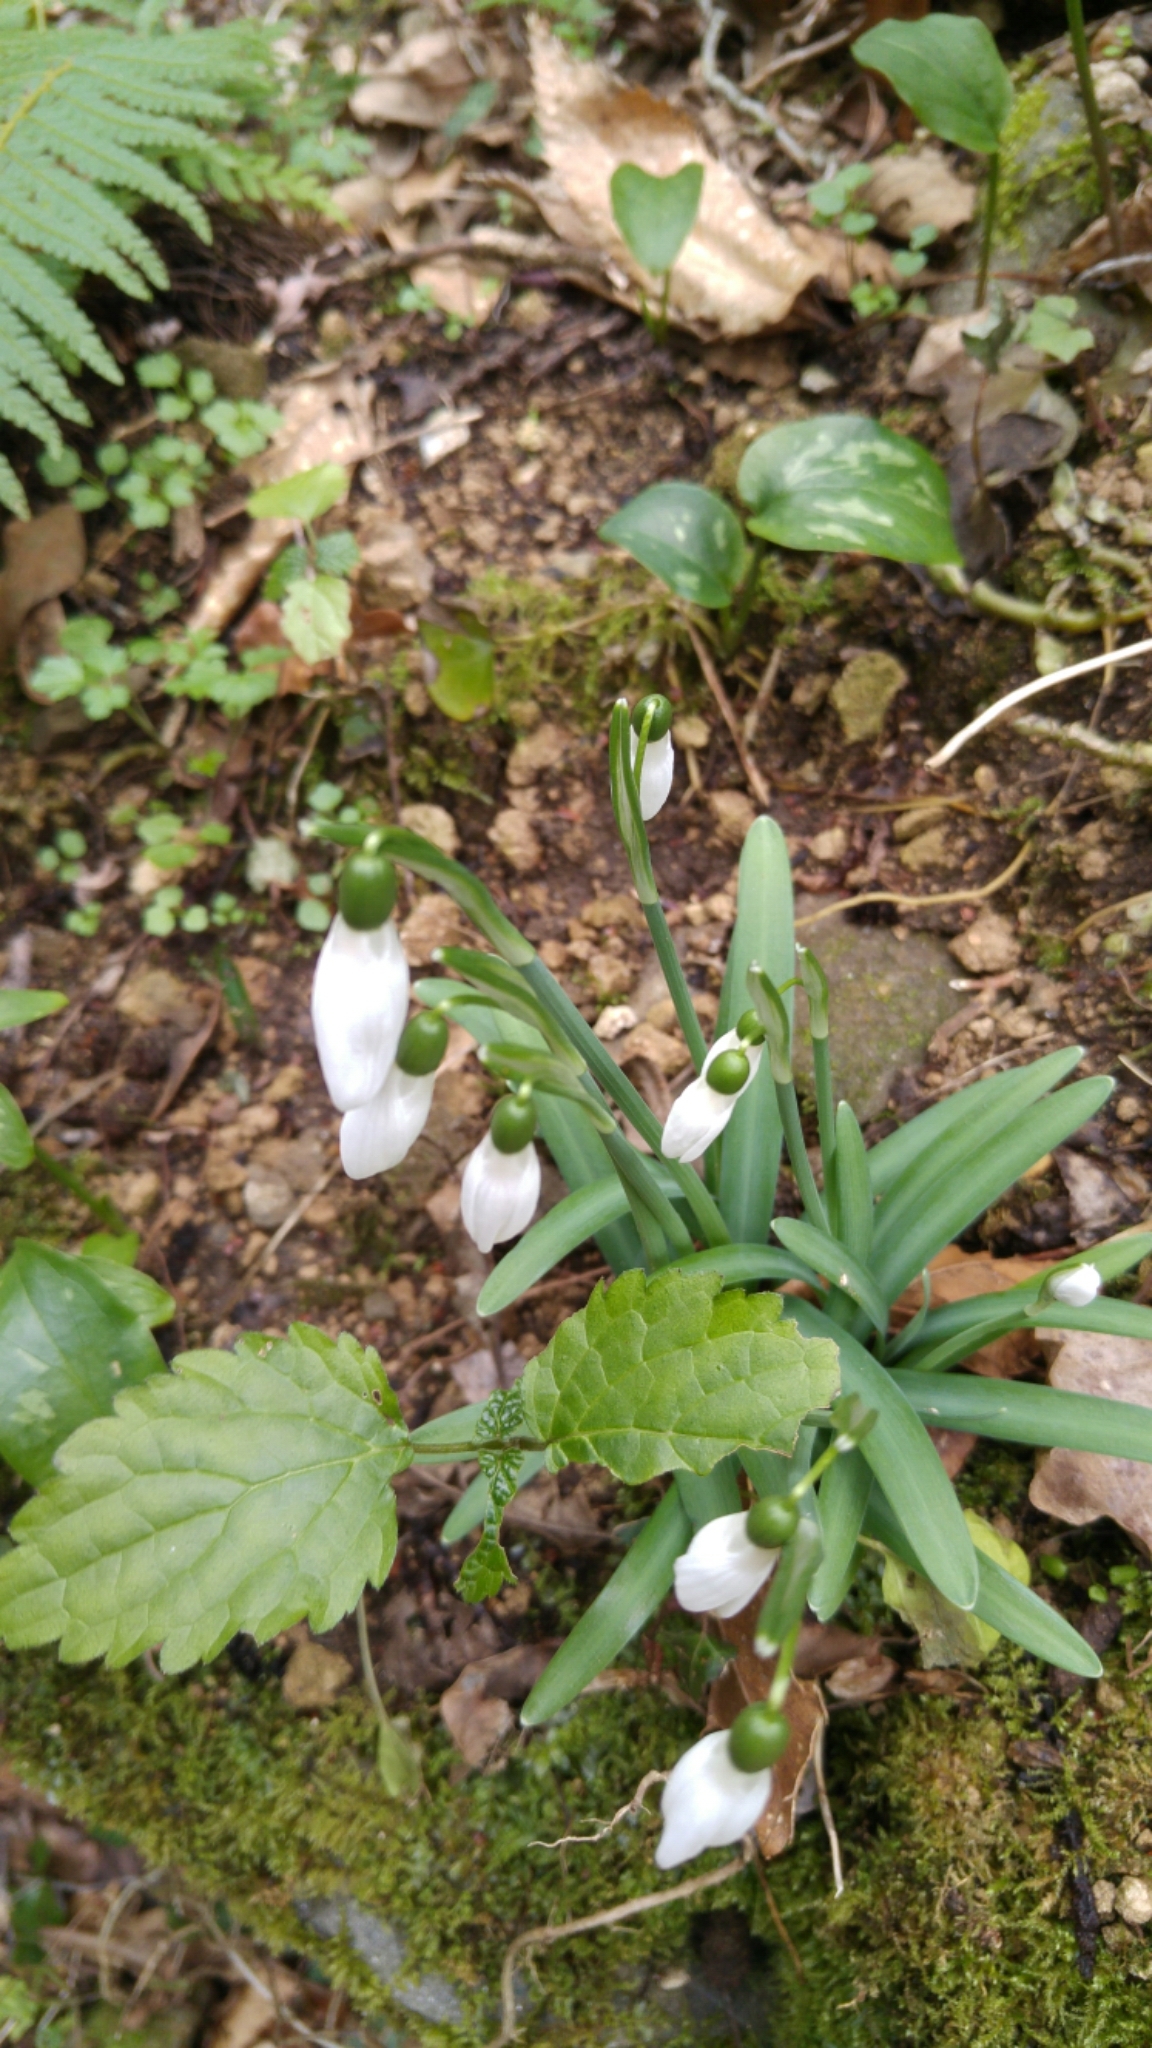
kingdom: Plantae
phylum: Tracheophyta
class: Liliopsida
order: Asparagales
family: Amaryllidaceae
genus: Galanthus
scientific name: Galanthus nivalis
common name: Snowdrop
